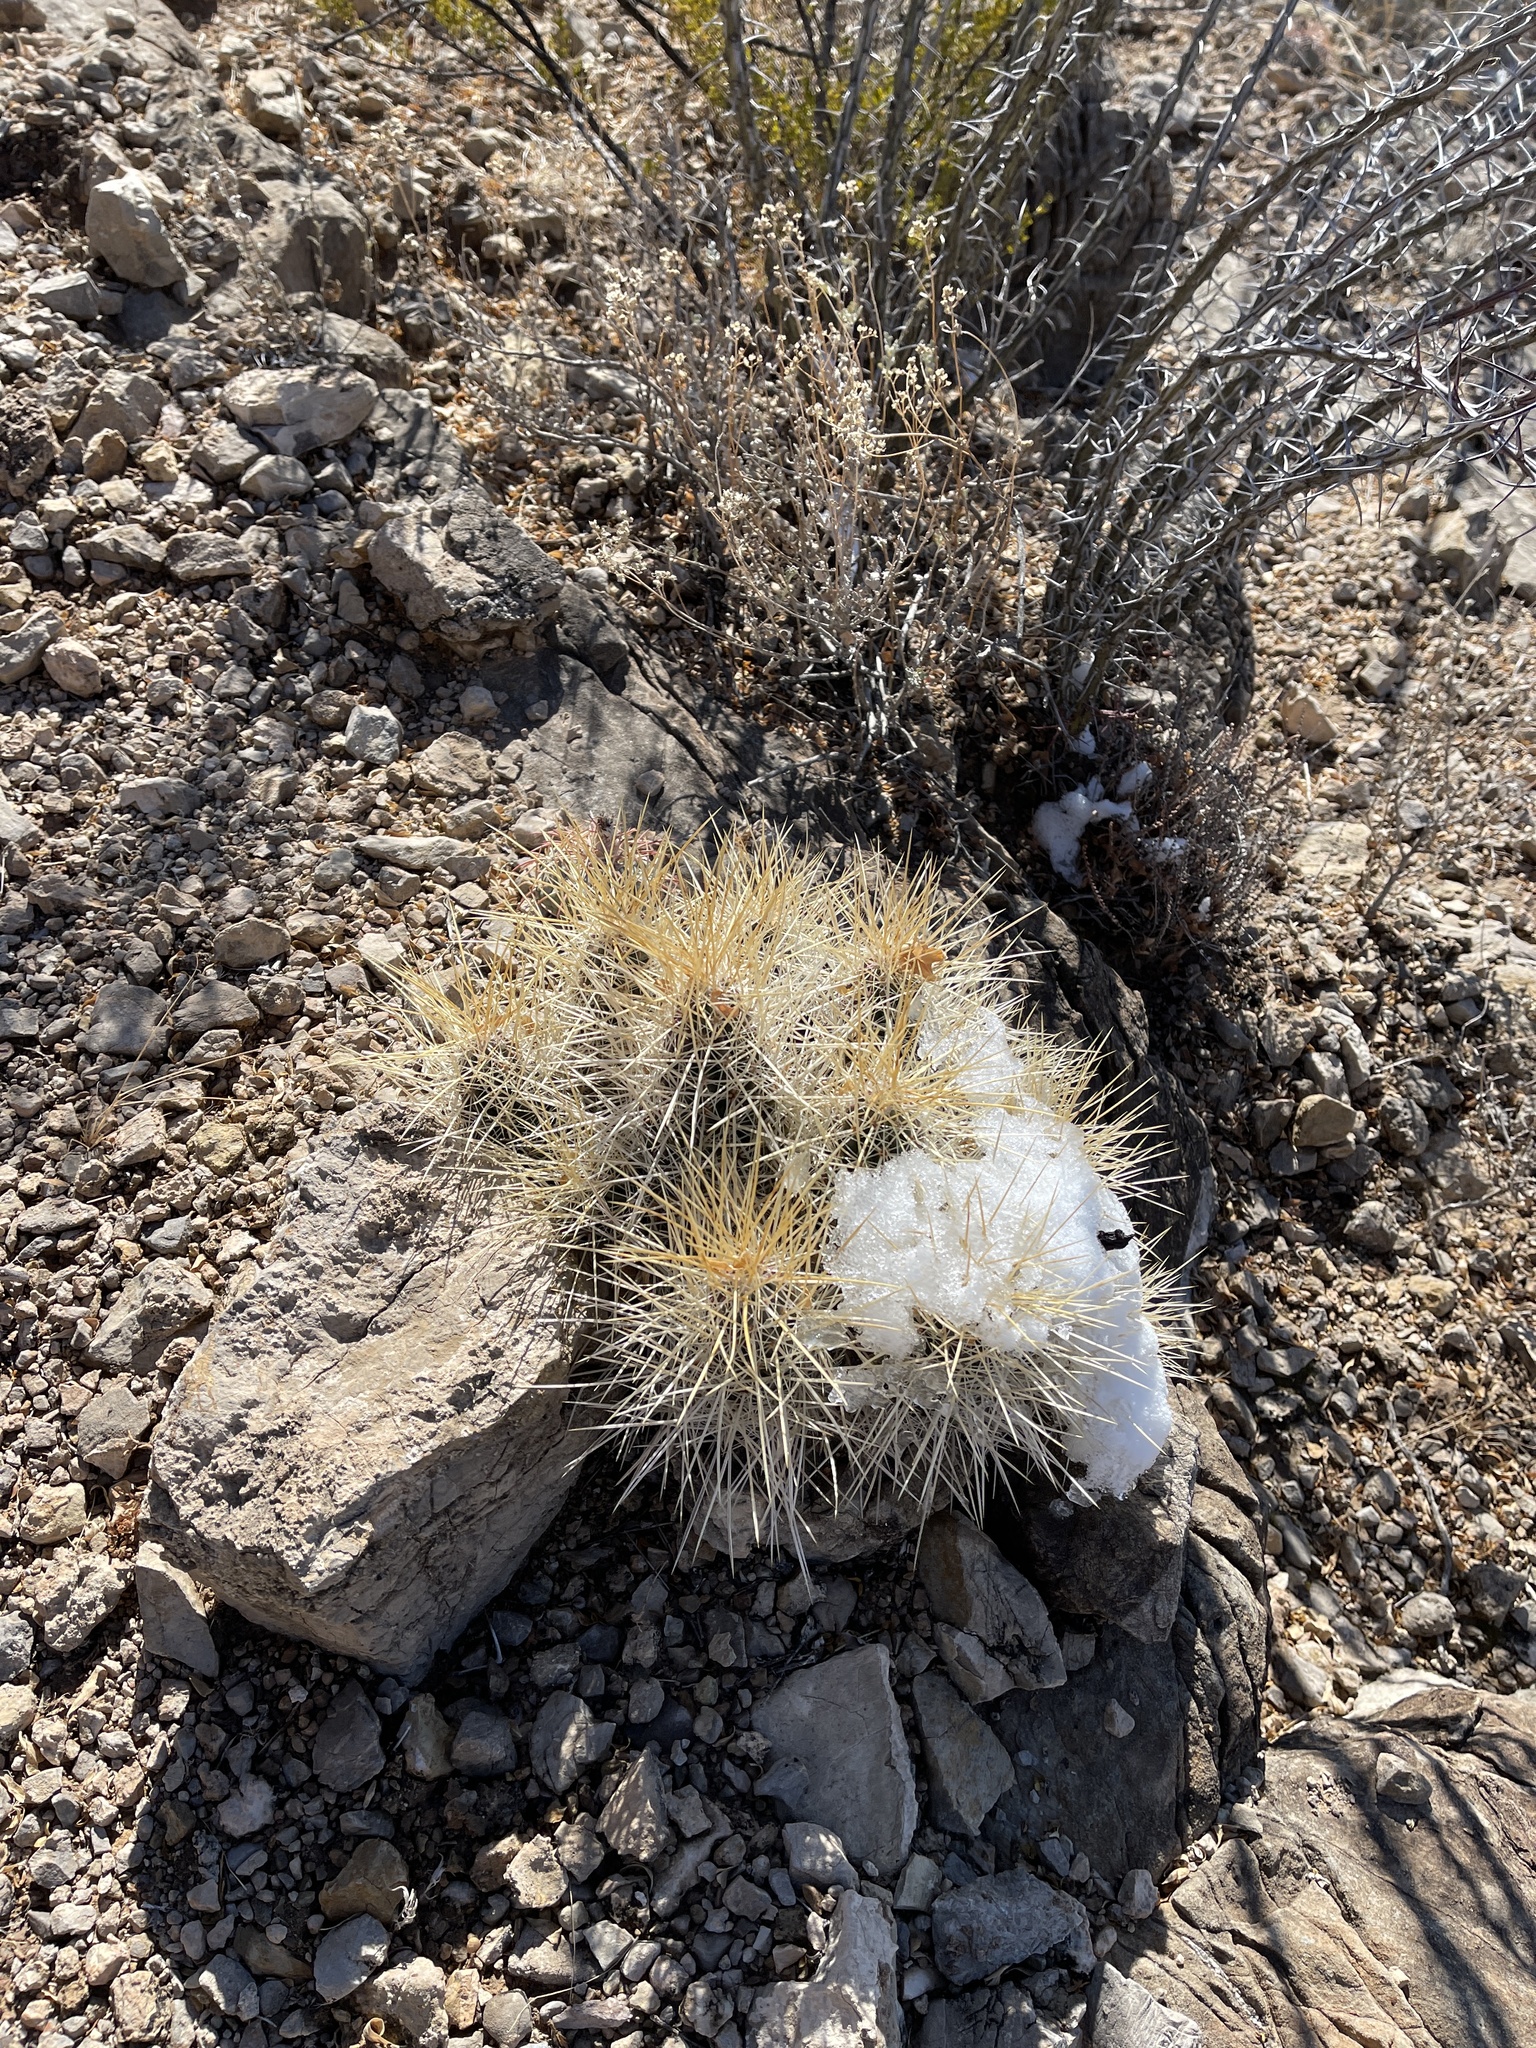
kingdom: Plantae
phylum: Tracheophyta
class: Magnoliopsida
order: Caryophyllales
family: Cactaceae
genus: Echinocereus
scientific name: Echinocereus stramineus
